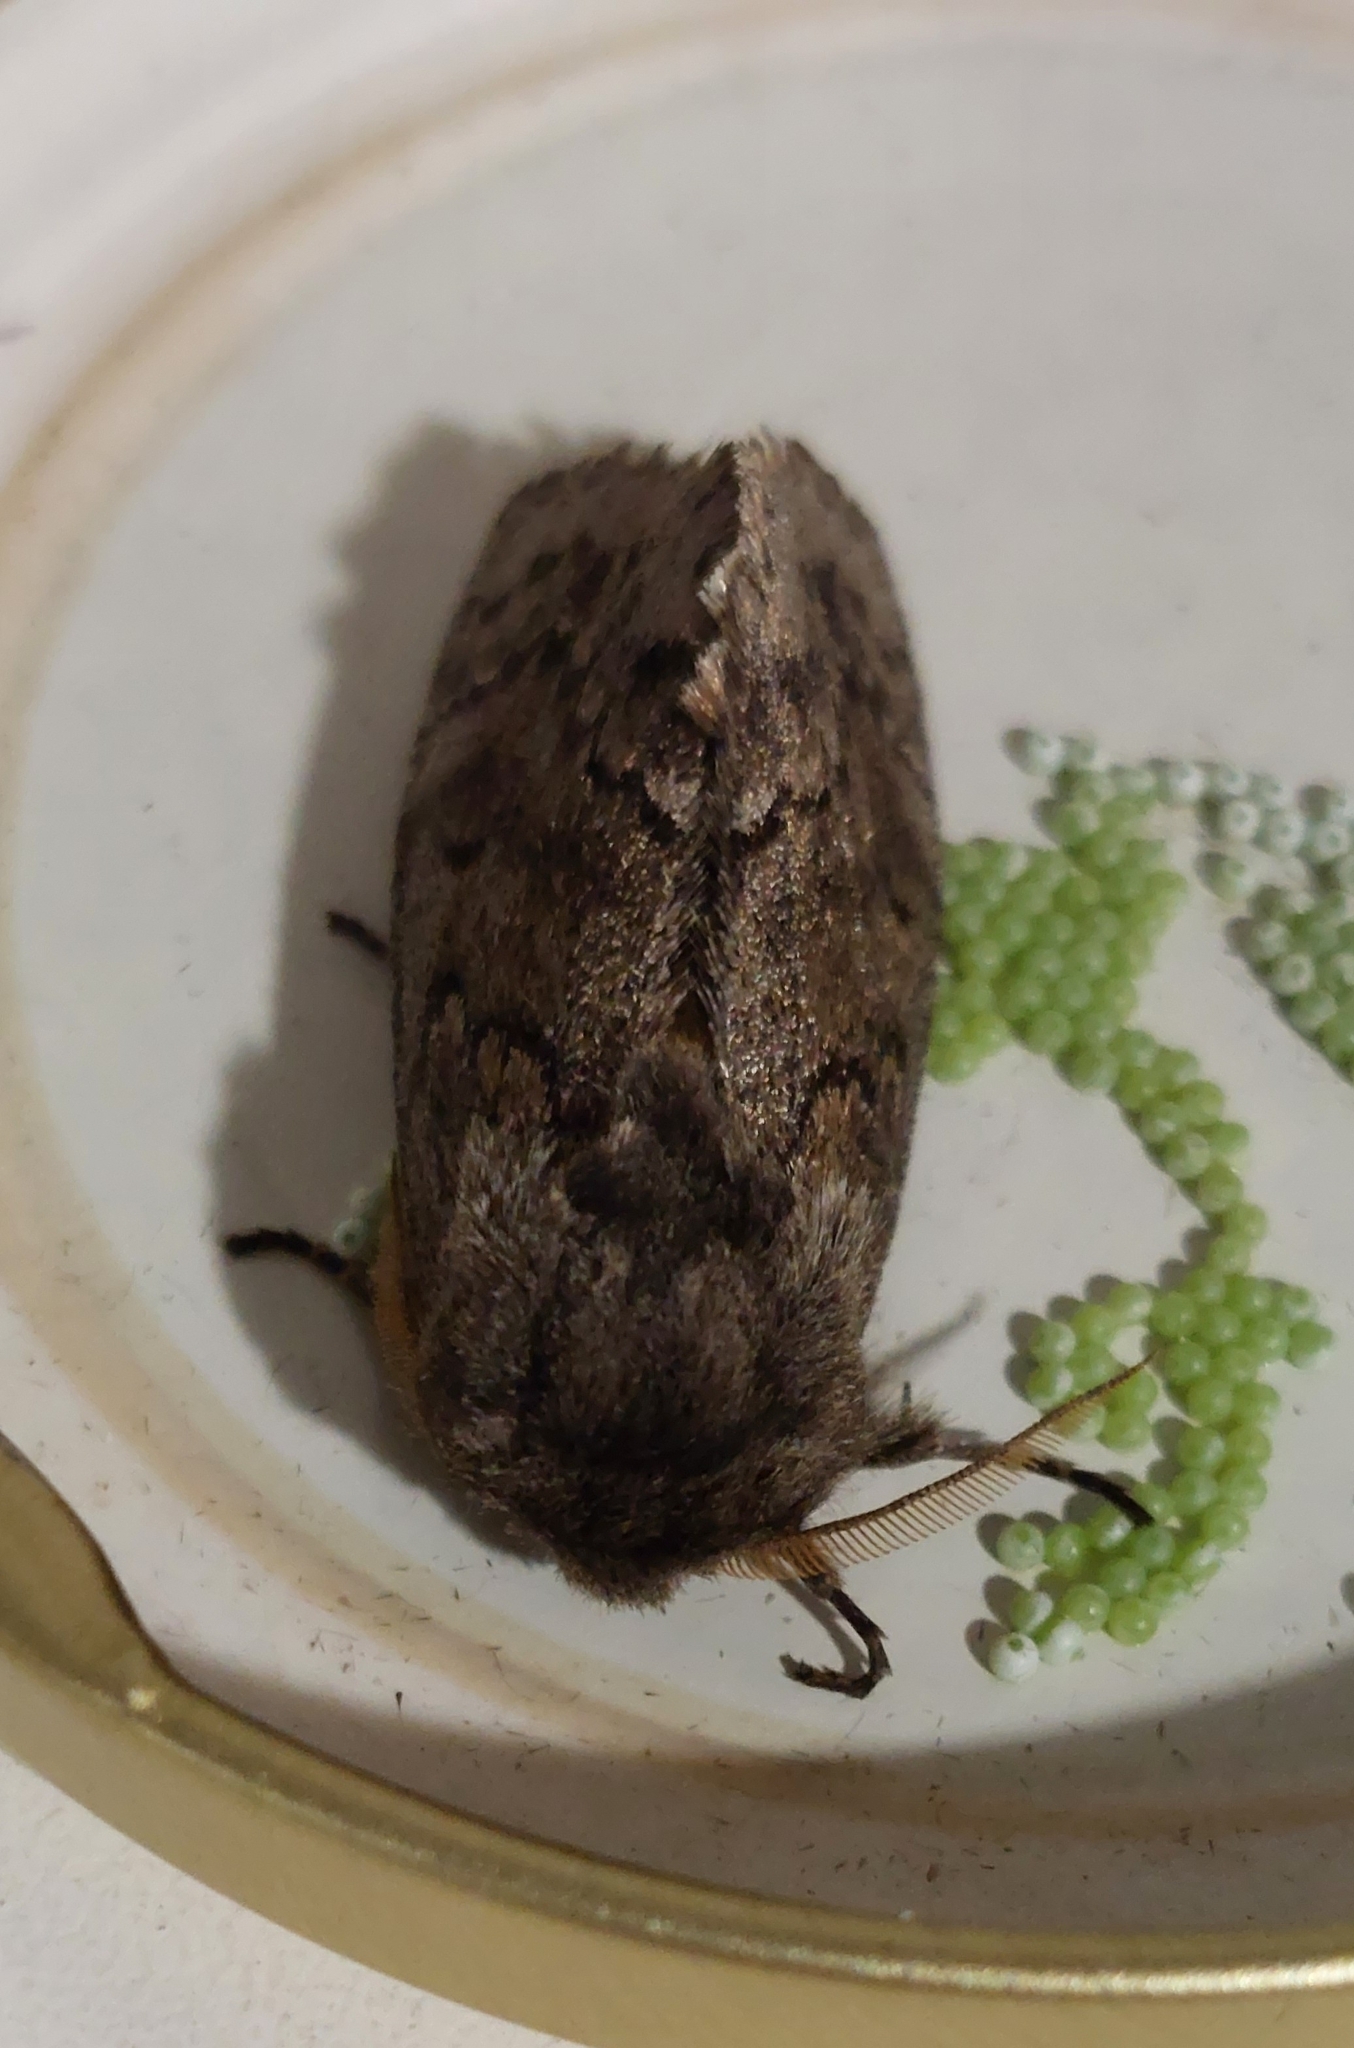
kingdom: Animalia
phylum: Arthropoda
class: Insecta
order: Lepidoptera
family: Notodontidae
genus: Neobourquinia
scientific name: Neobourquinia bifasciata
